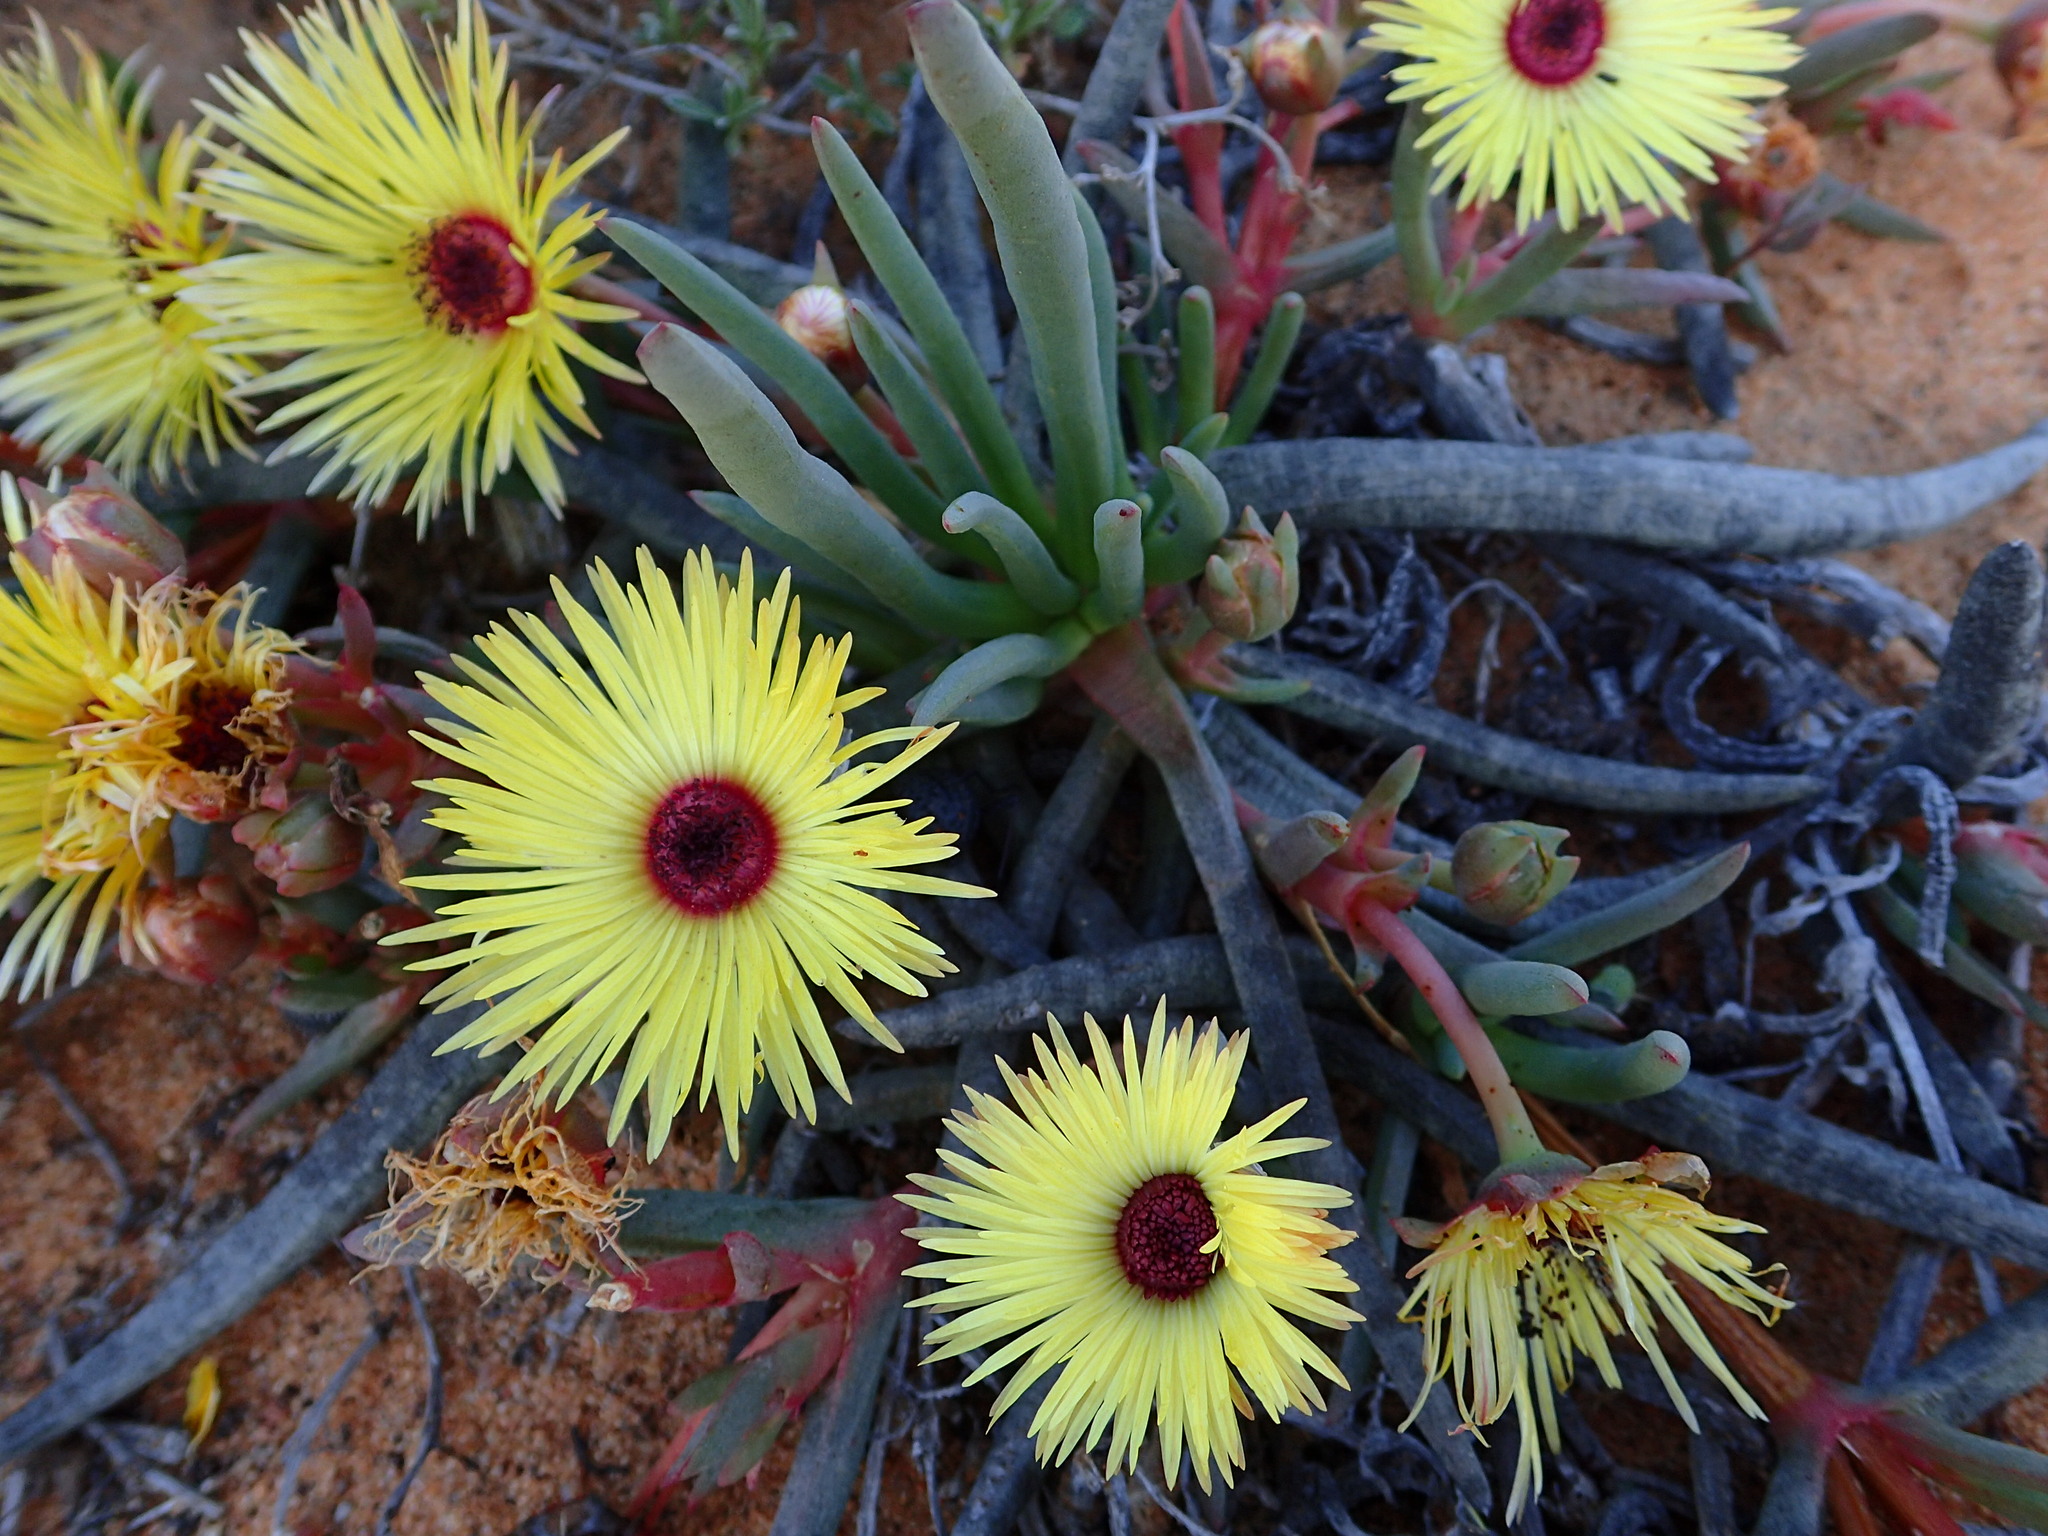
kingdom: Plantae
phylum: Tracheophyta
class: Magnoliopsida
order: Caryophyllales
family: Aizoaceae
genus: Cephalophyllum
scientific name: Cephalophyllum pillansii
